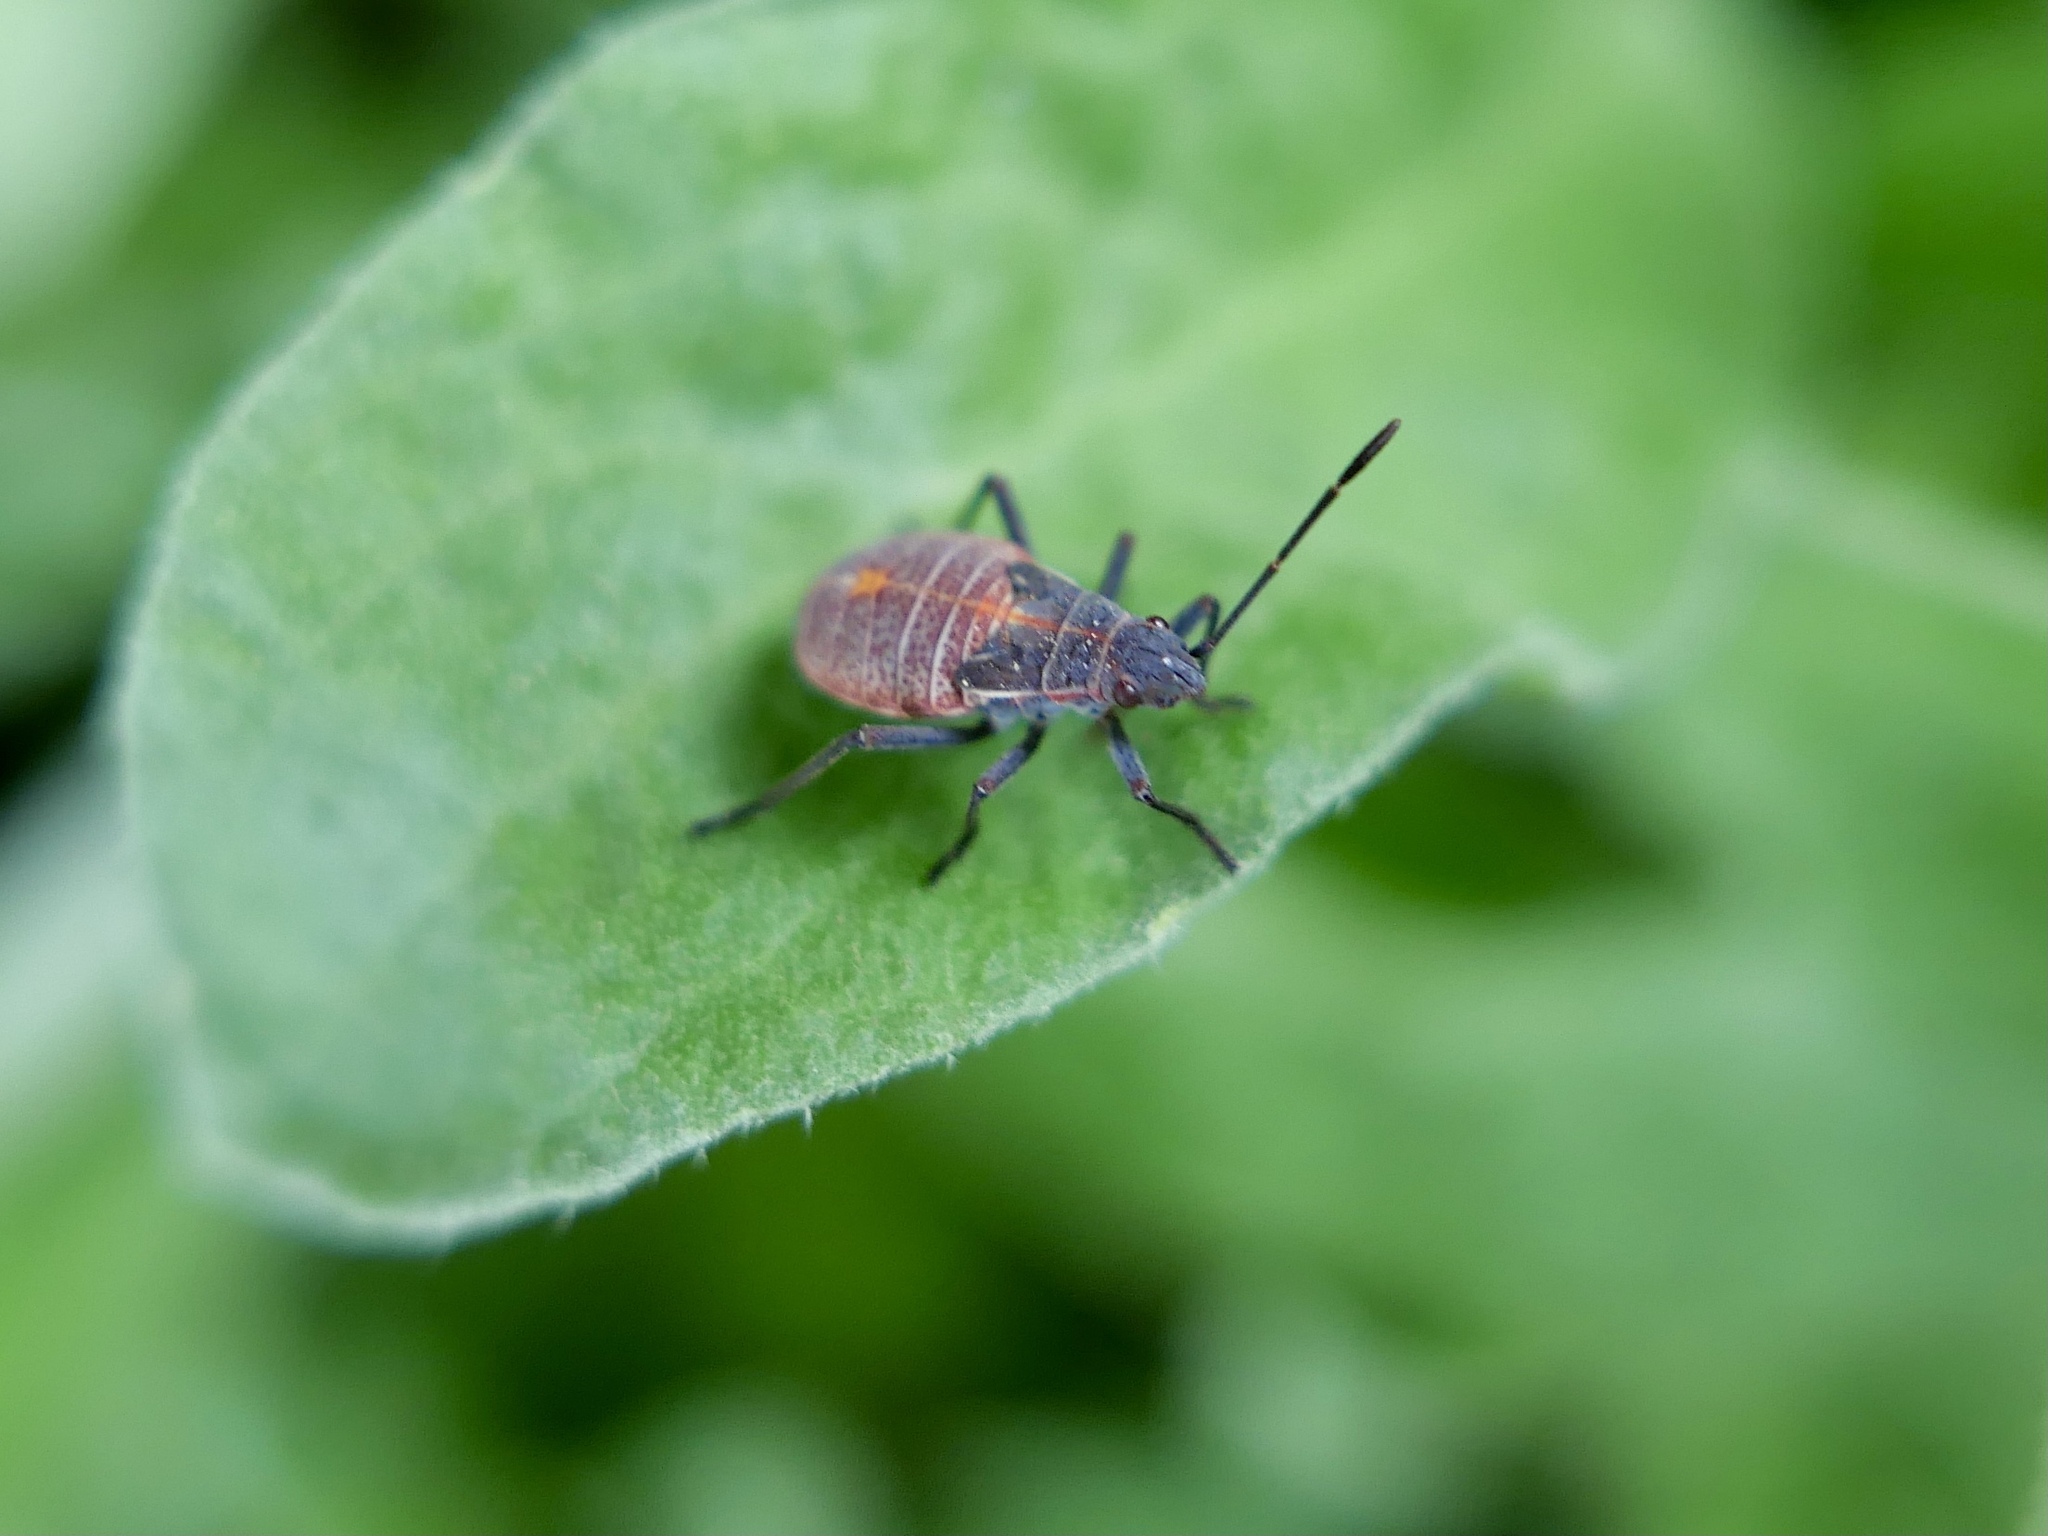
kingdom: Animalia
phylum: Arthropoda
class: Insecta
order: Hemiptera
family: Rhopalidae
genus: Boisea
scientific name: Boisea rubrolineata
